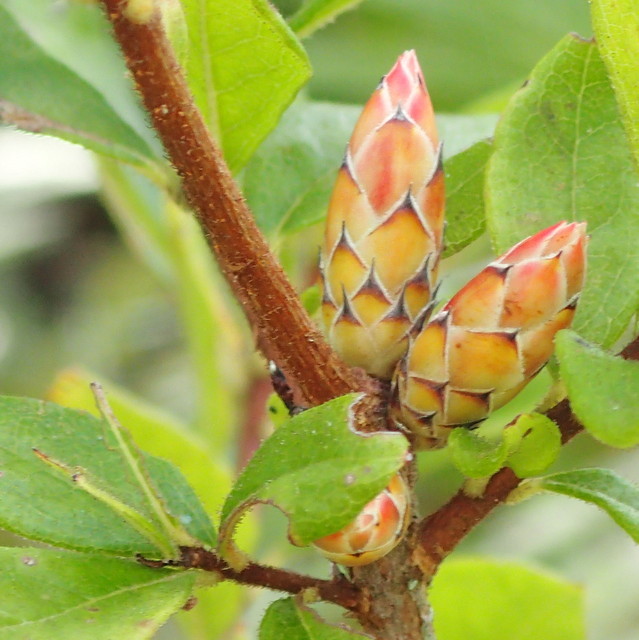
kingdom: Plantae
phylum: Tracheophyta
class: Magnoliopsida
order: Ericales
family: Ericaceae
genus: Rhododendron
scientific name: Rhododendron serrulatum
